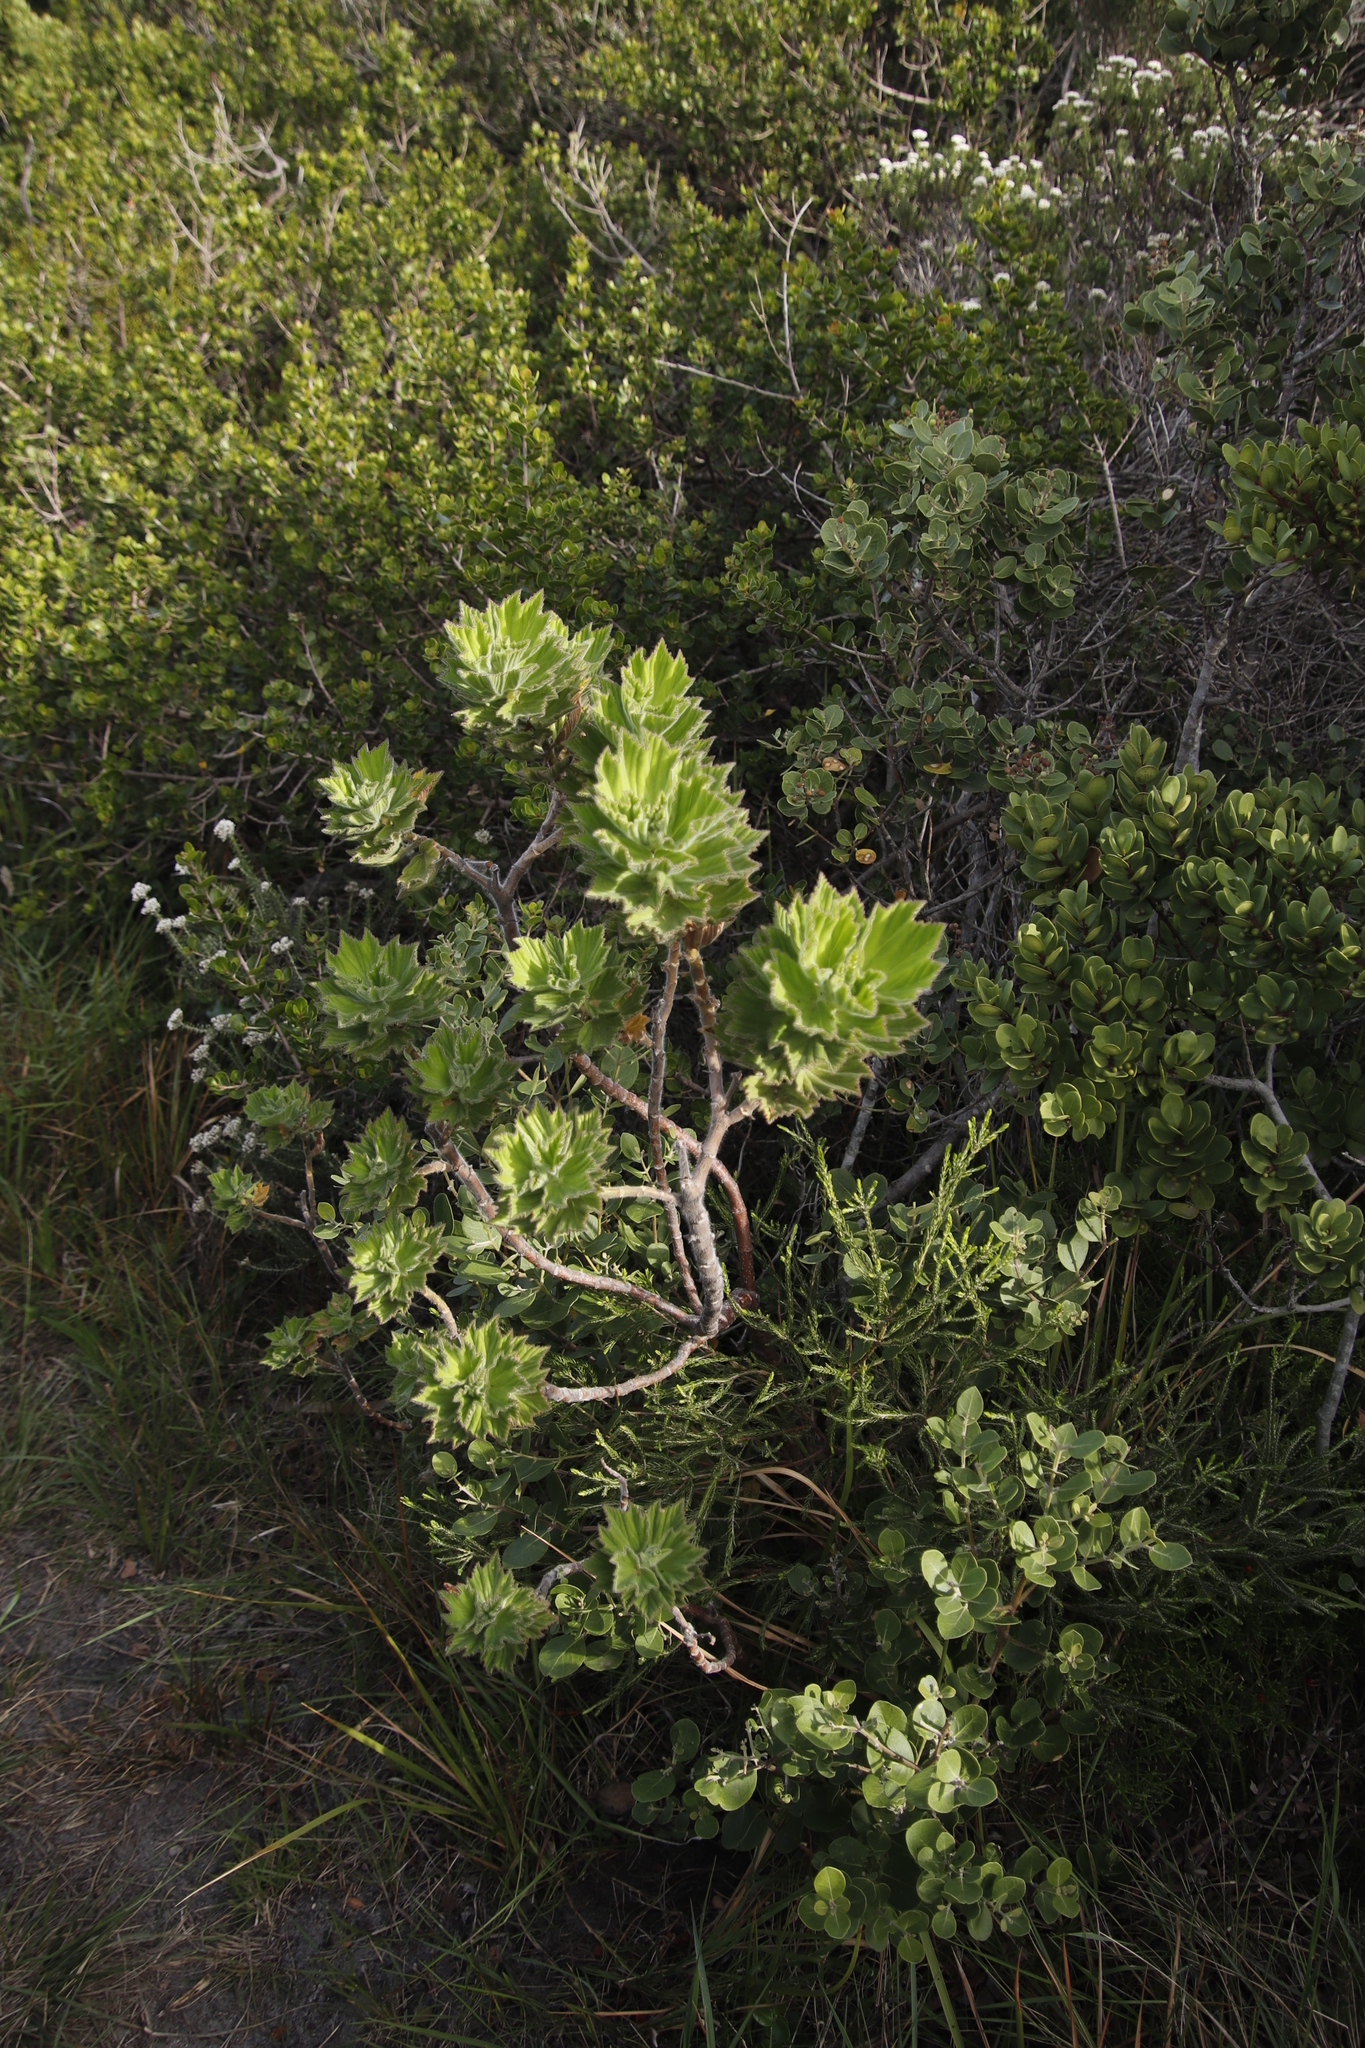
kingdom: Plantae
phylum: Tracheophyta
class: Magnoliopsida
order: Geraniales
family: Geraniaceae
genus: Pelargonium
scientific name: Pelargonium cucullatum
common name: Tree pelargonium
